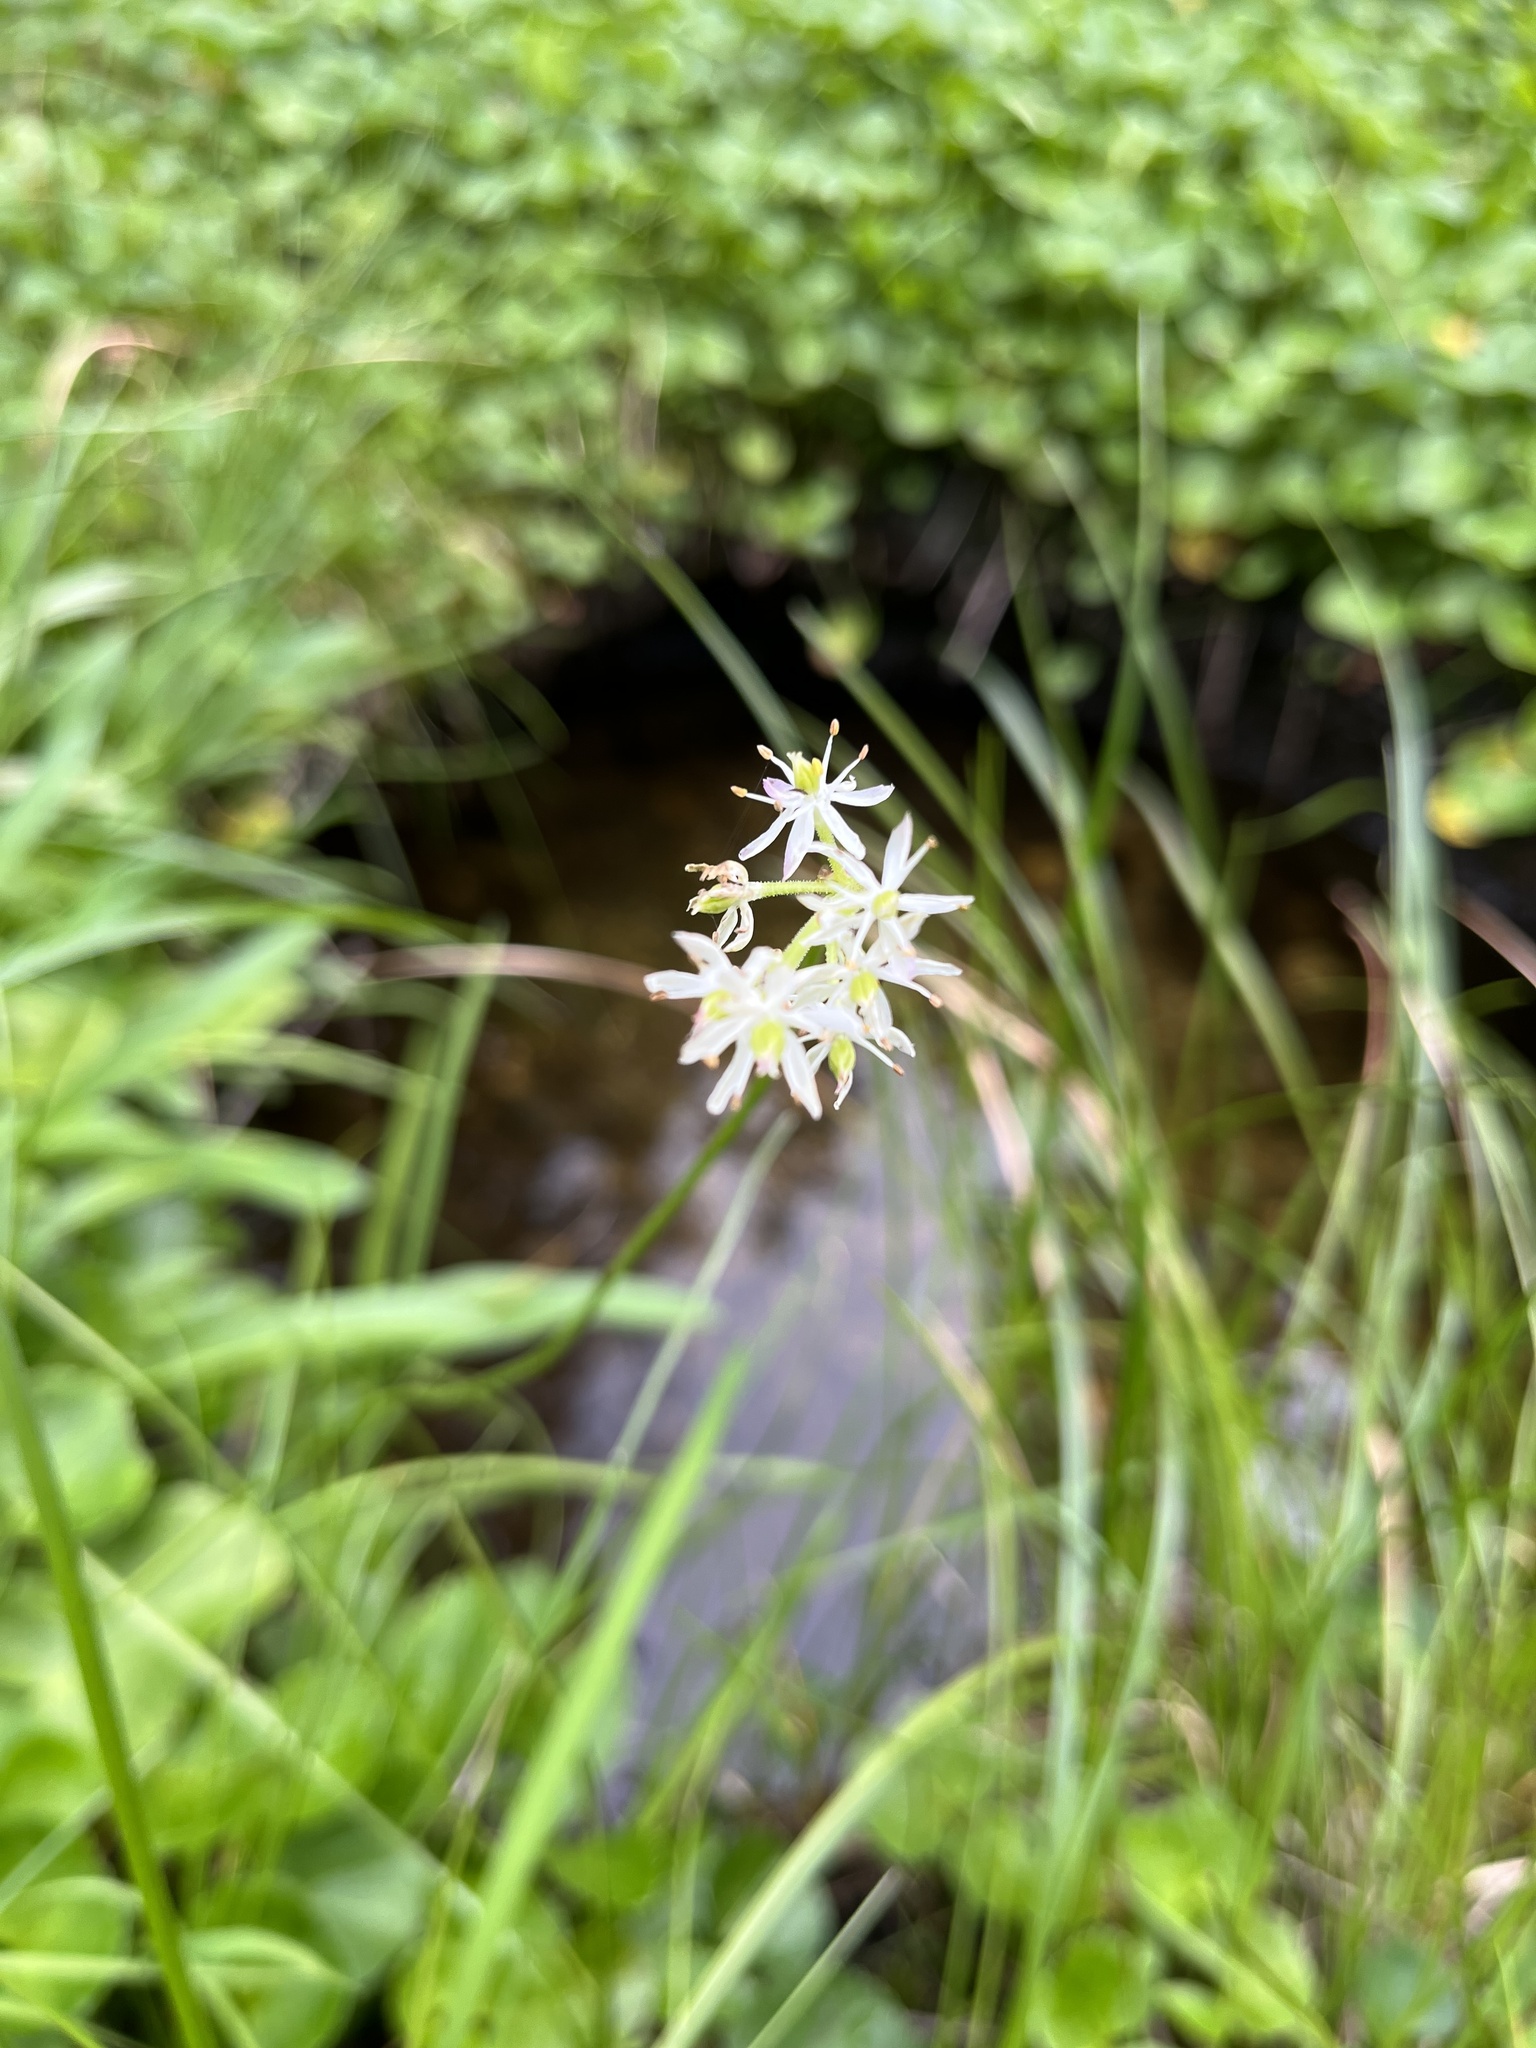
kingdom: Plantae
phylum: Tracheophyta
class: Liliopsida
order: Alismatales
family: Tofieldiaceae
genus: Triantha
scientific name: Triantha occidentalis
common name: Western false asphodel
